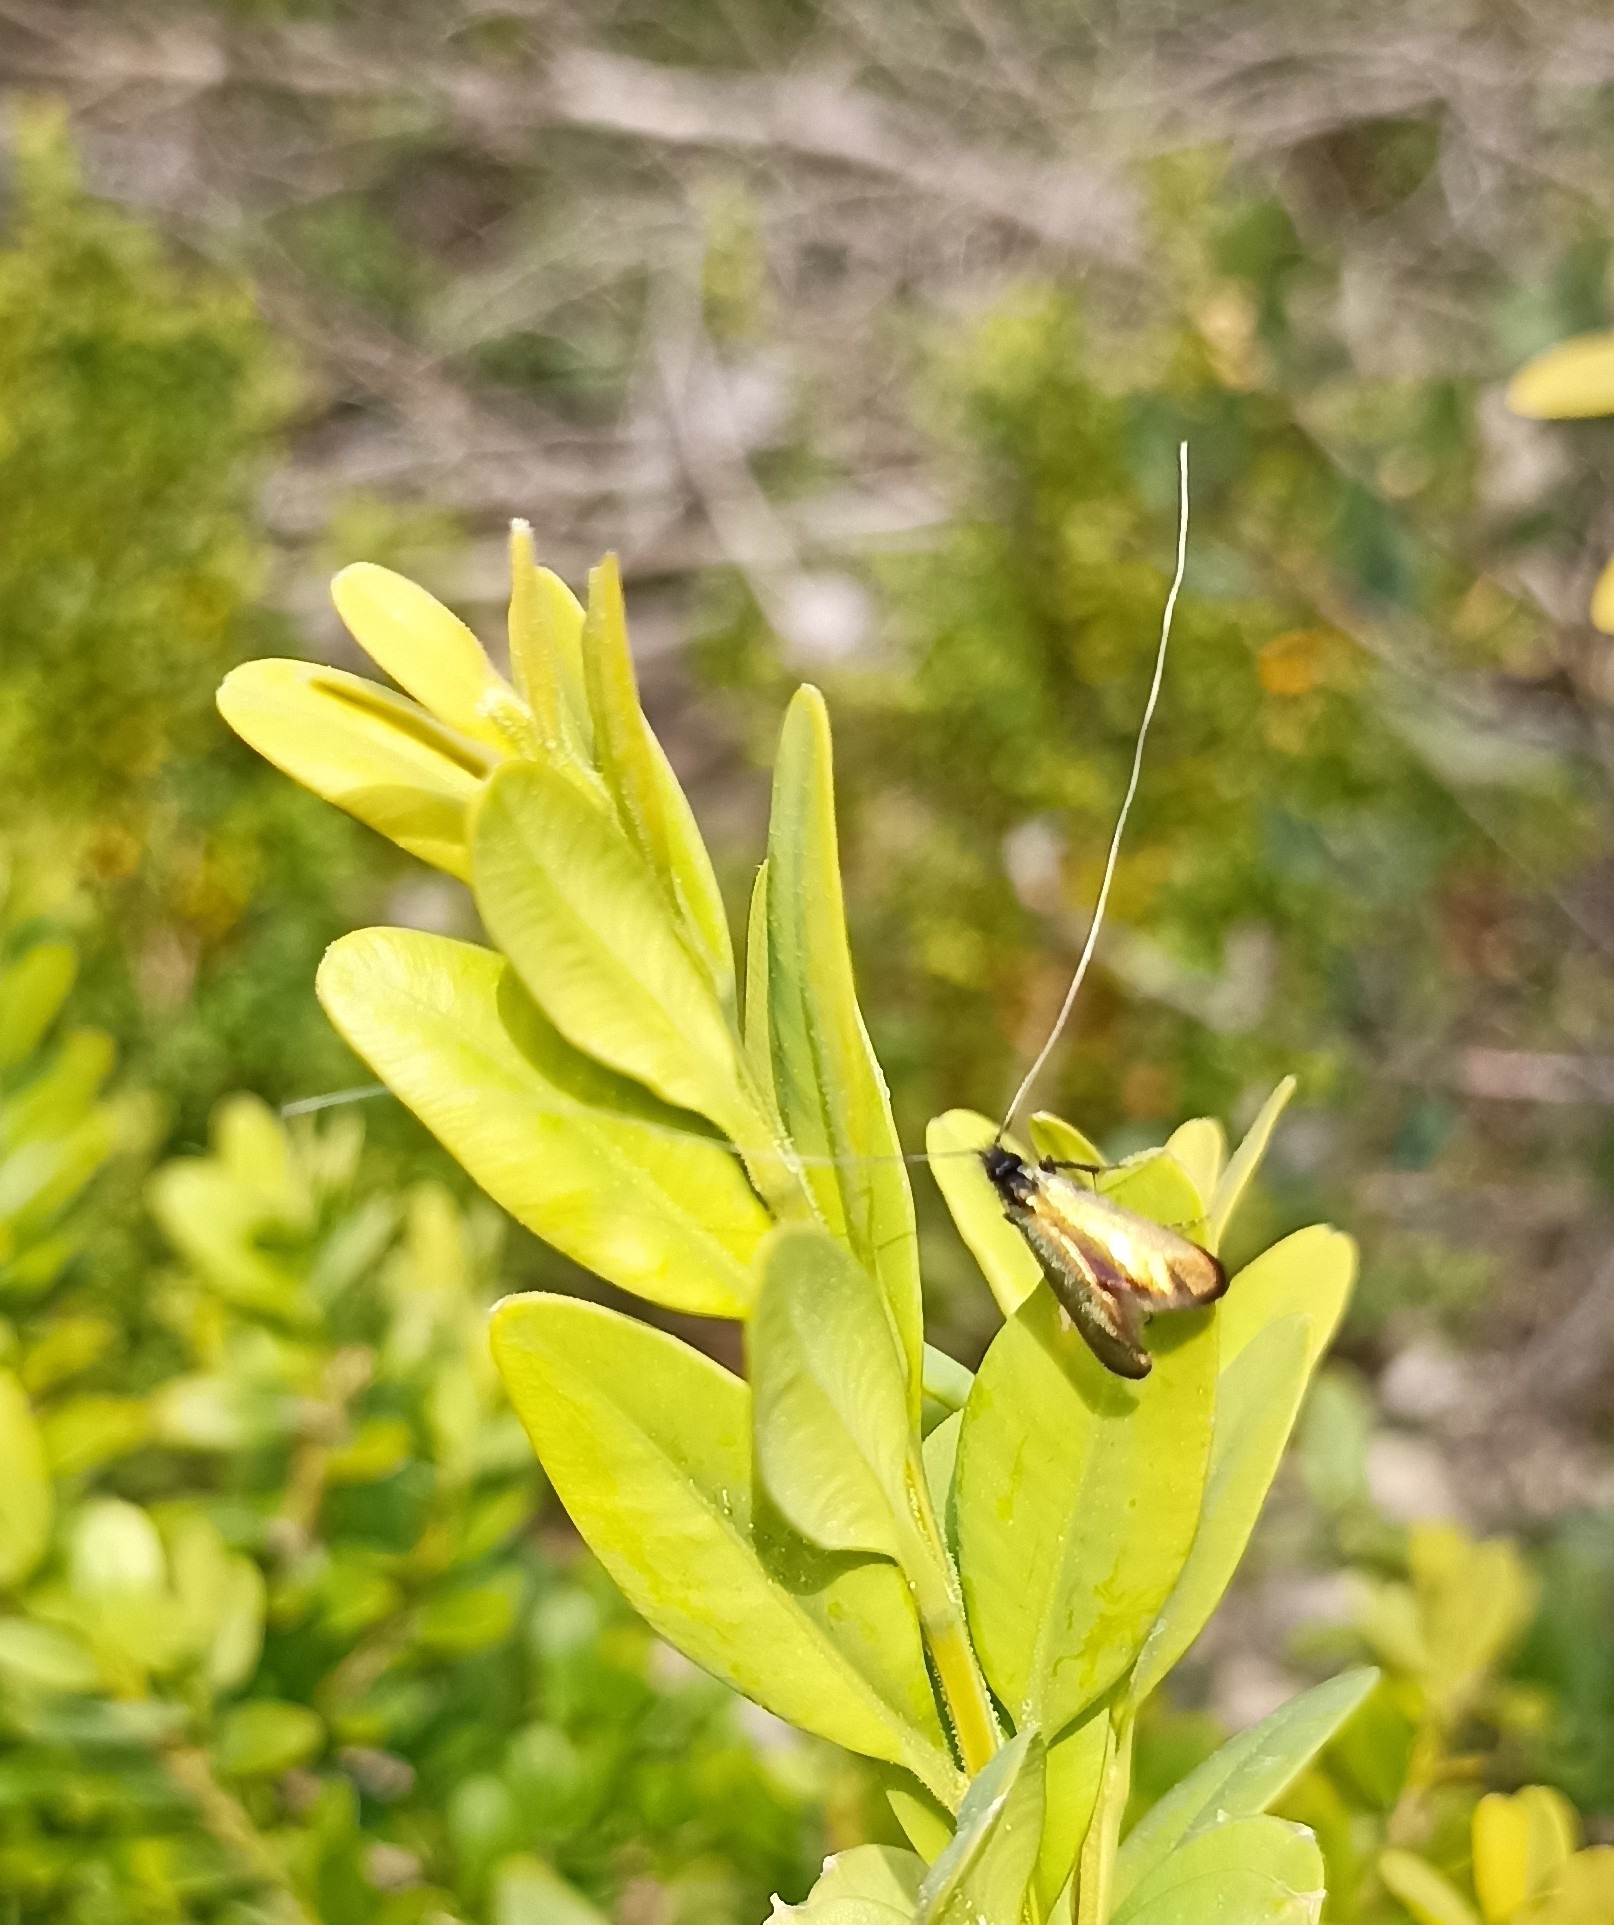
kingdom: Animalia
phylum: Arthropoda
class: Insecta
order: Lepidoptera
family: Adelidae
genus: Adela
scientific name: Adela viridella
